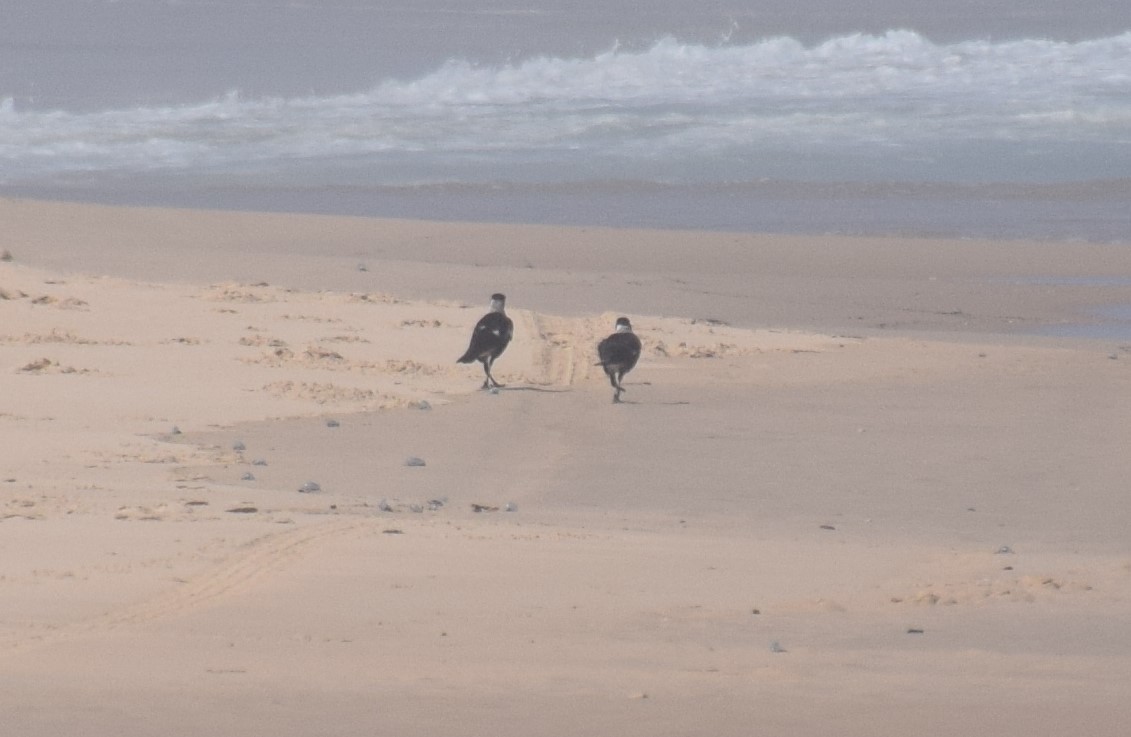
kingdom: Animalia
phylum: Chordata
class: Aves
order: Passeriformes
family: Cracticidae
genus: Gymnorhina
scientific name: Gymnorhina tibicen
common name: Australian magpie
